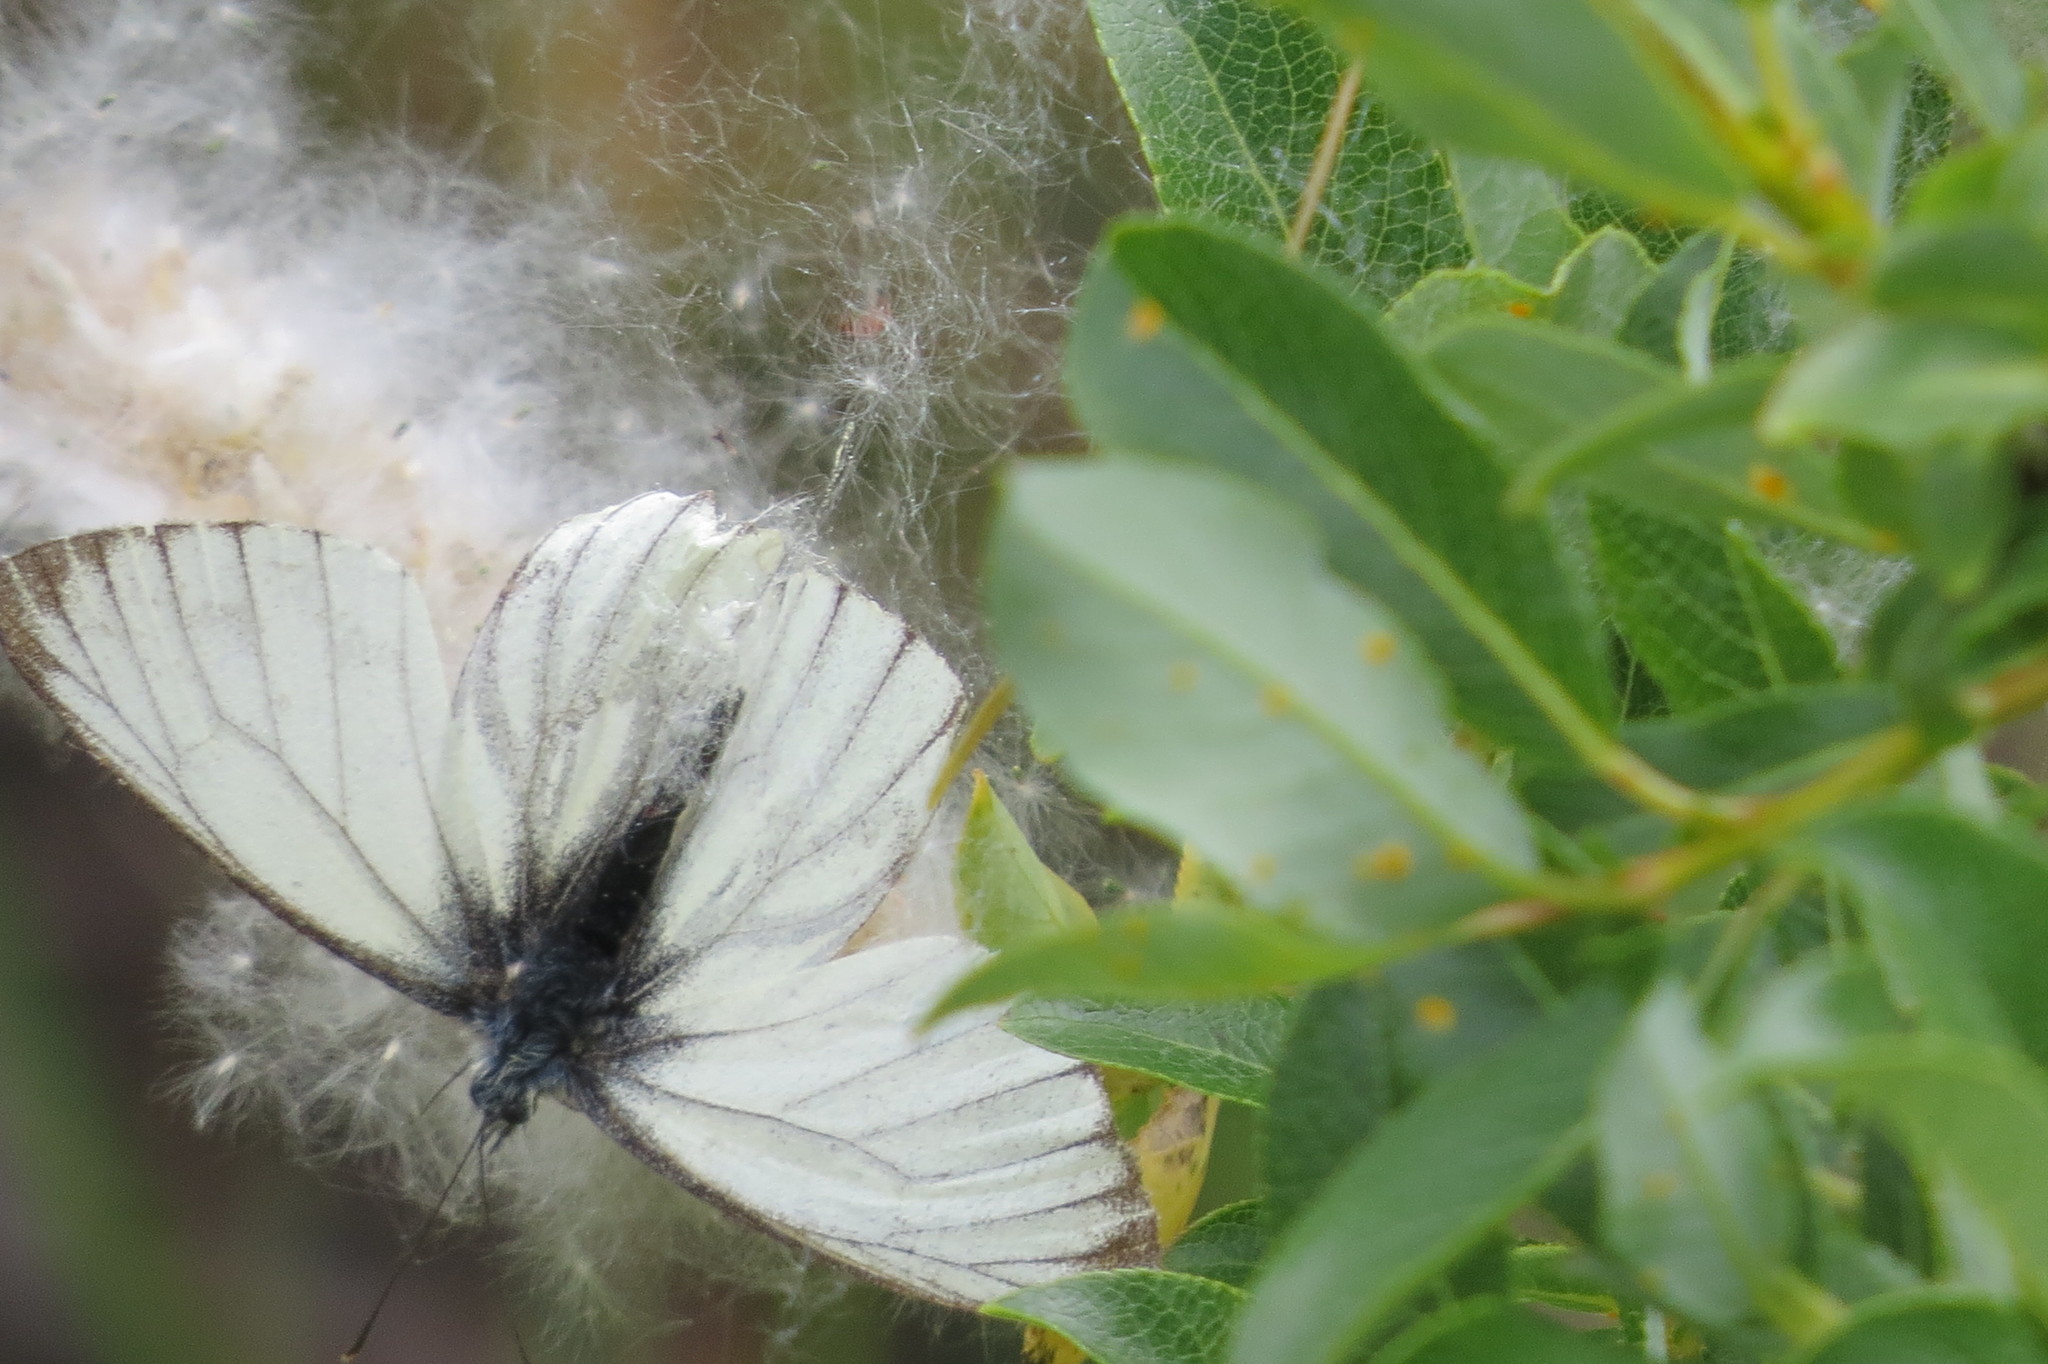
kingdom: Animalia
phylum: Arthropoda
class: Insecta
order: Lepidoptera
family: Pieridae
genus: Pieris
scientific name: Pieris bryoniae
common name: Mountain green-veined white
